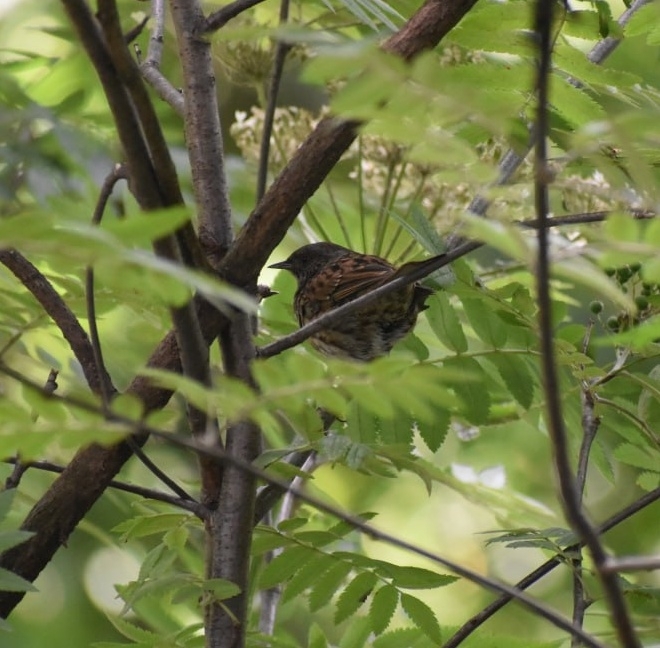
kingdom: Animalia
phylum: Chordata
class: Aves
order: Passeriformes
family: Prunellidae
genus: Prunella
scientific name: Prunella modularis
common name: Dunnock
